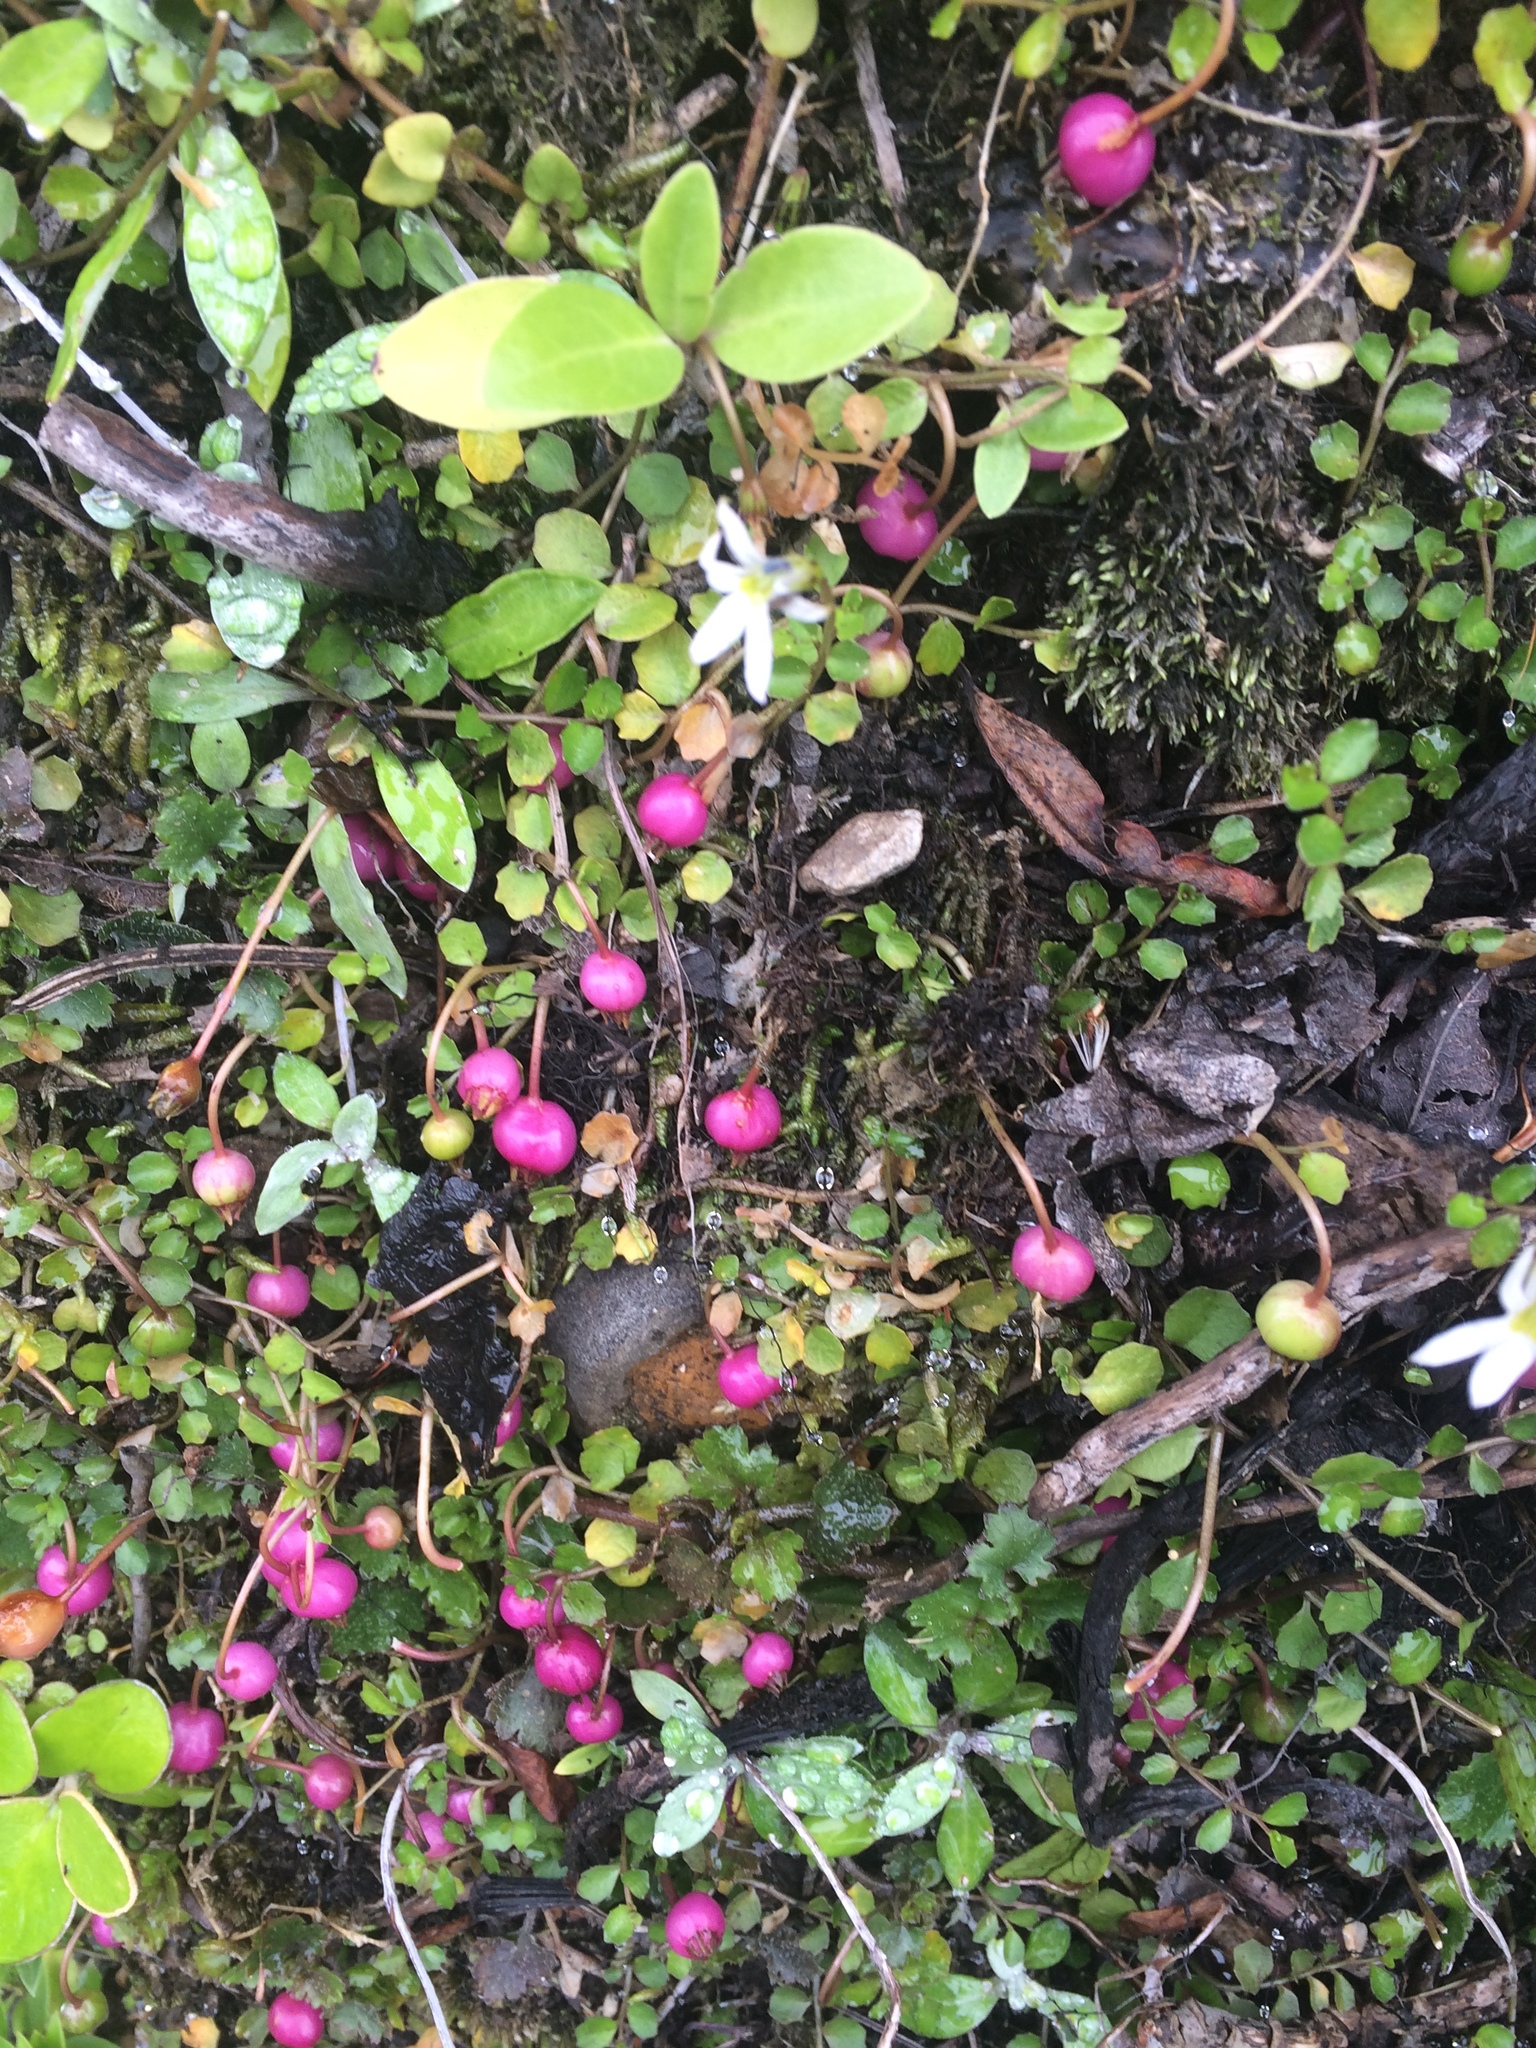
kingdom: Plantae
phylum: Tracheophyta
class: Magnoliopsida
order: Asterales
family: Campanulaceae
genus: Lobelia
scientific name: Lobelia angulata
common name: Lawn lobelia
